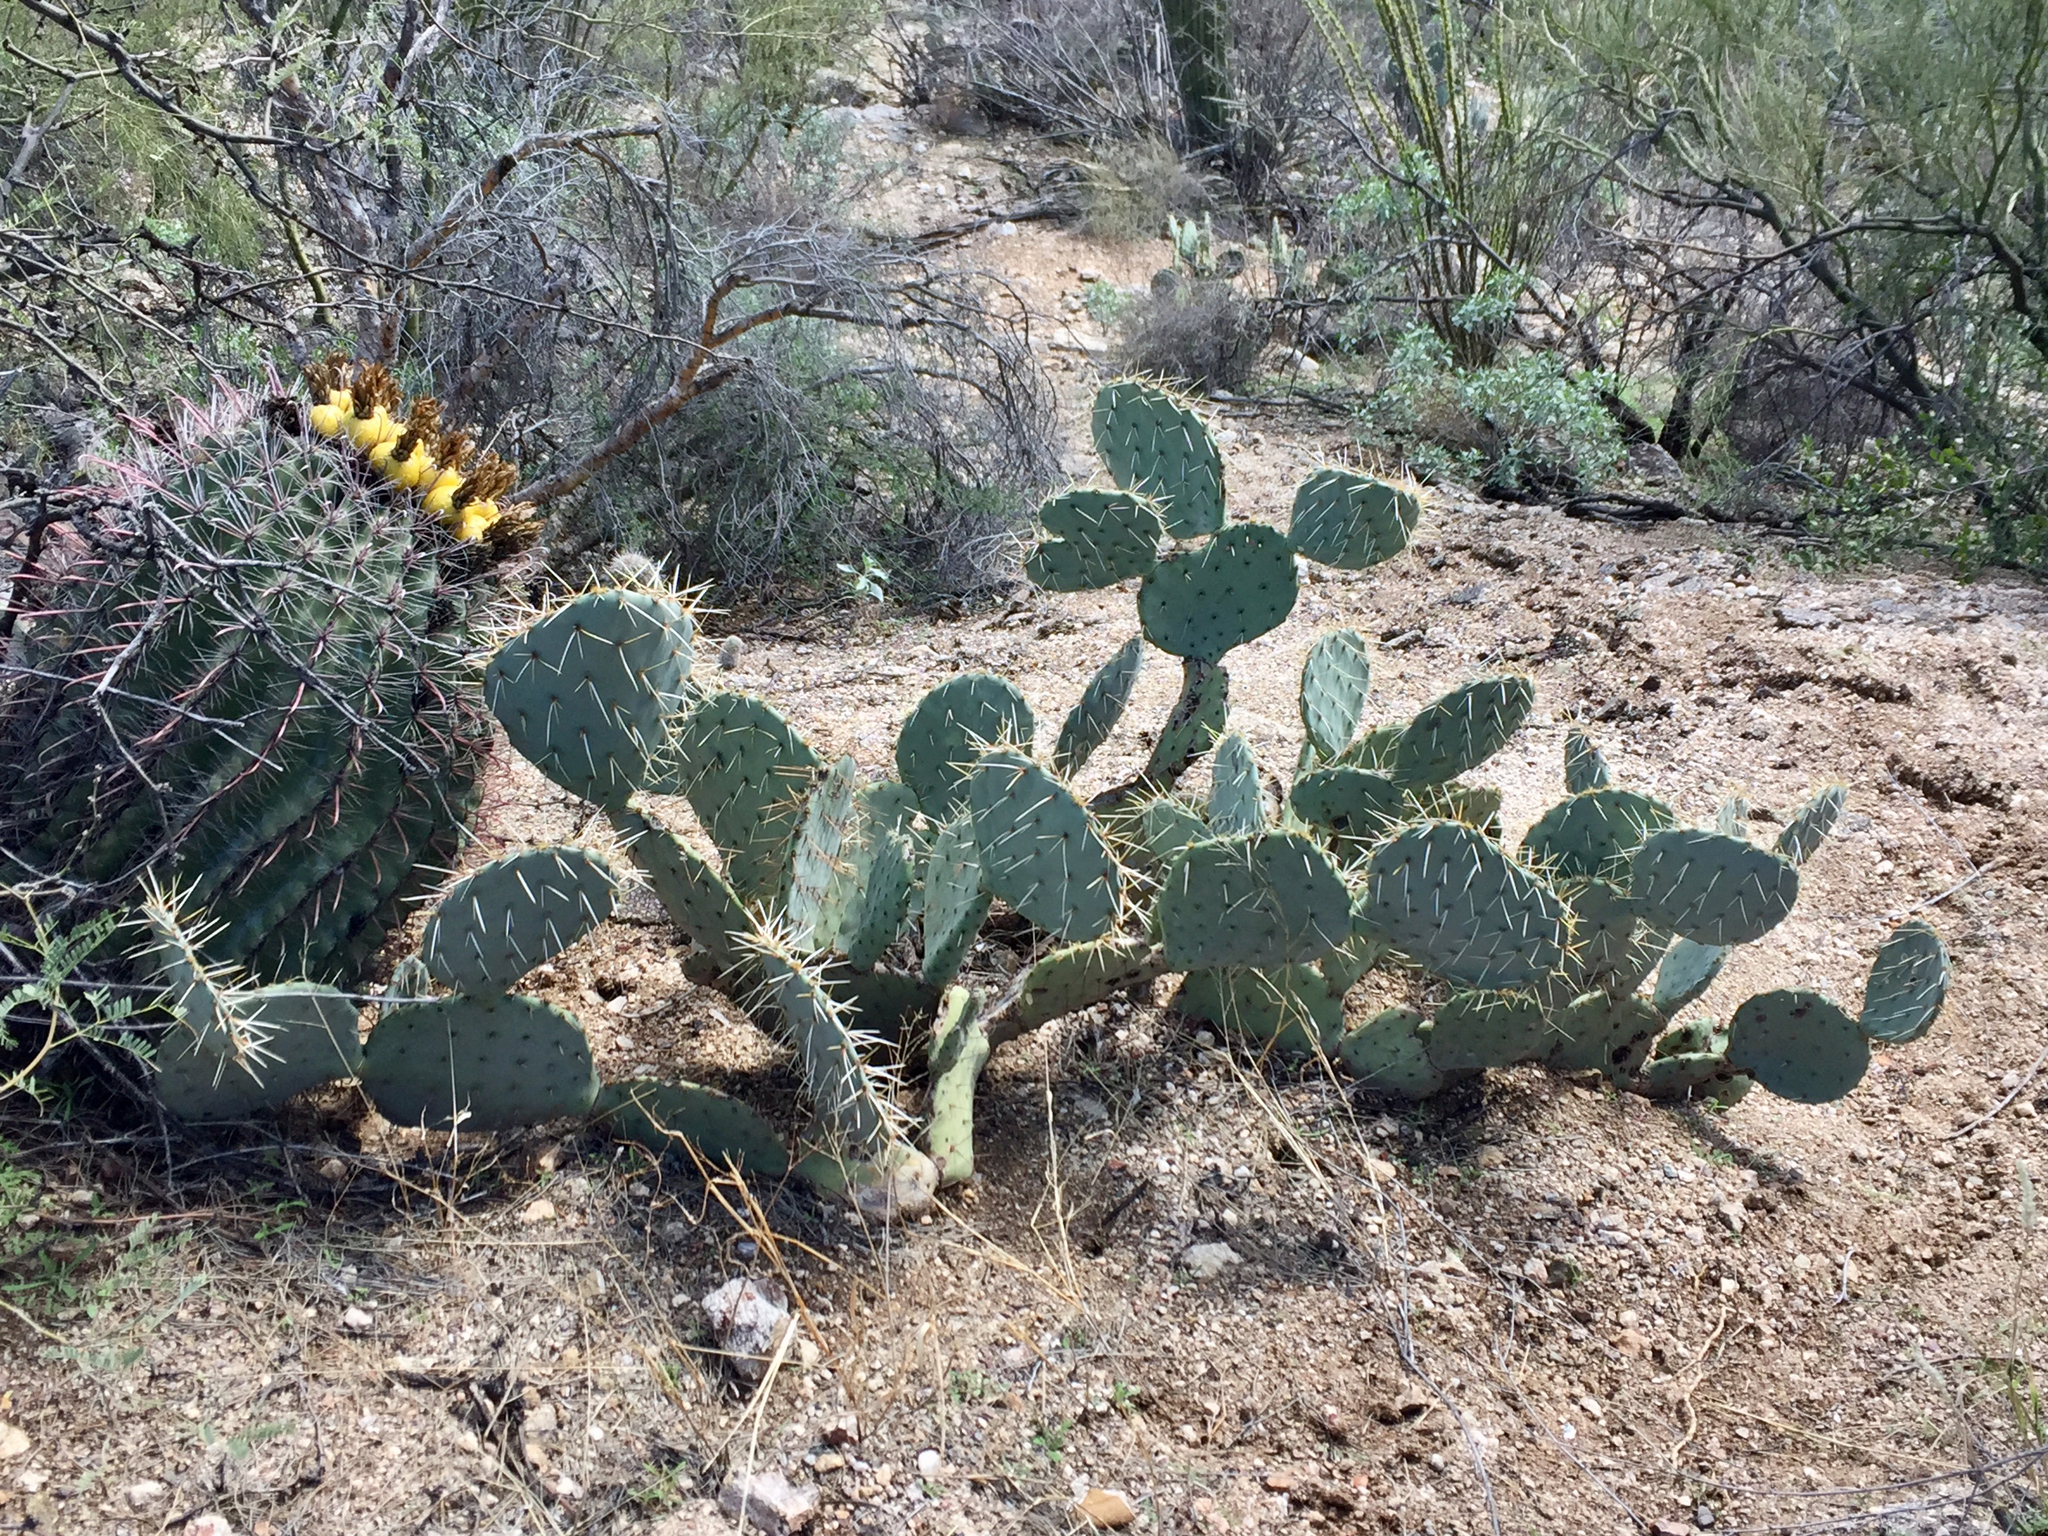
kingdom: Plantae
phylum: Tracheophyta
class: Magnoliopsida
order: Caryophyllales
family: Cactaceae
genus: Opuntia
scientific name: Opuntia engelmannii
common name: Cactus-apple
